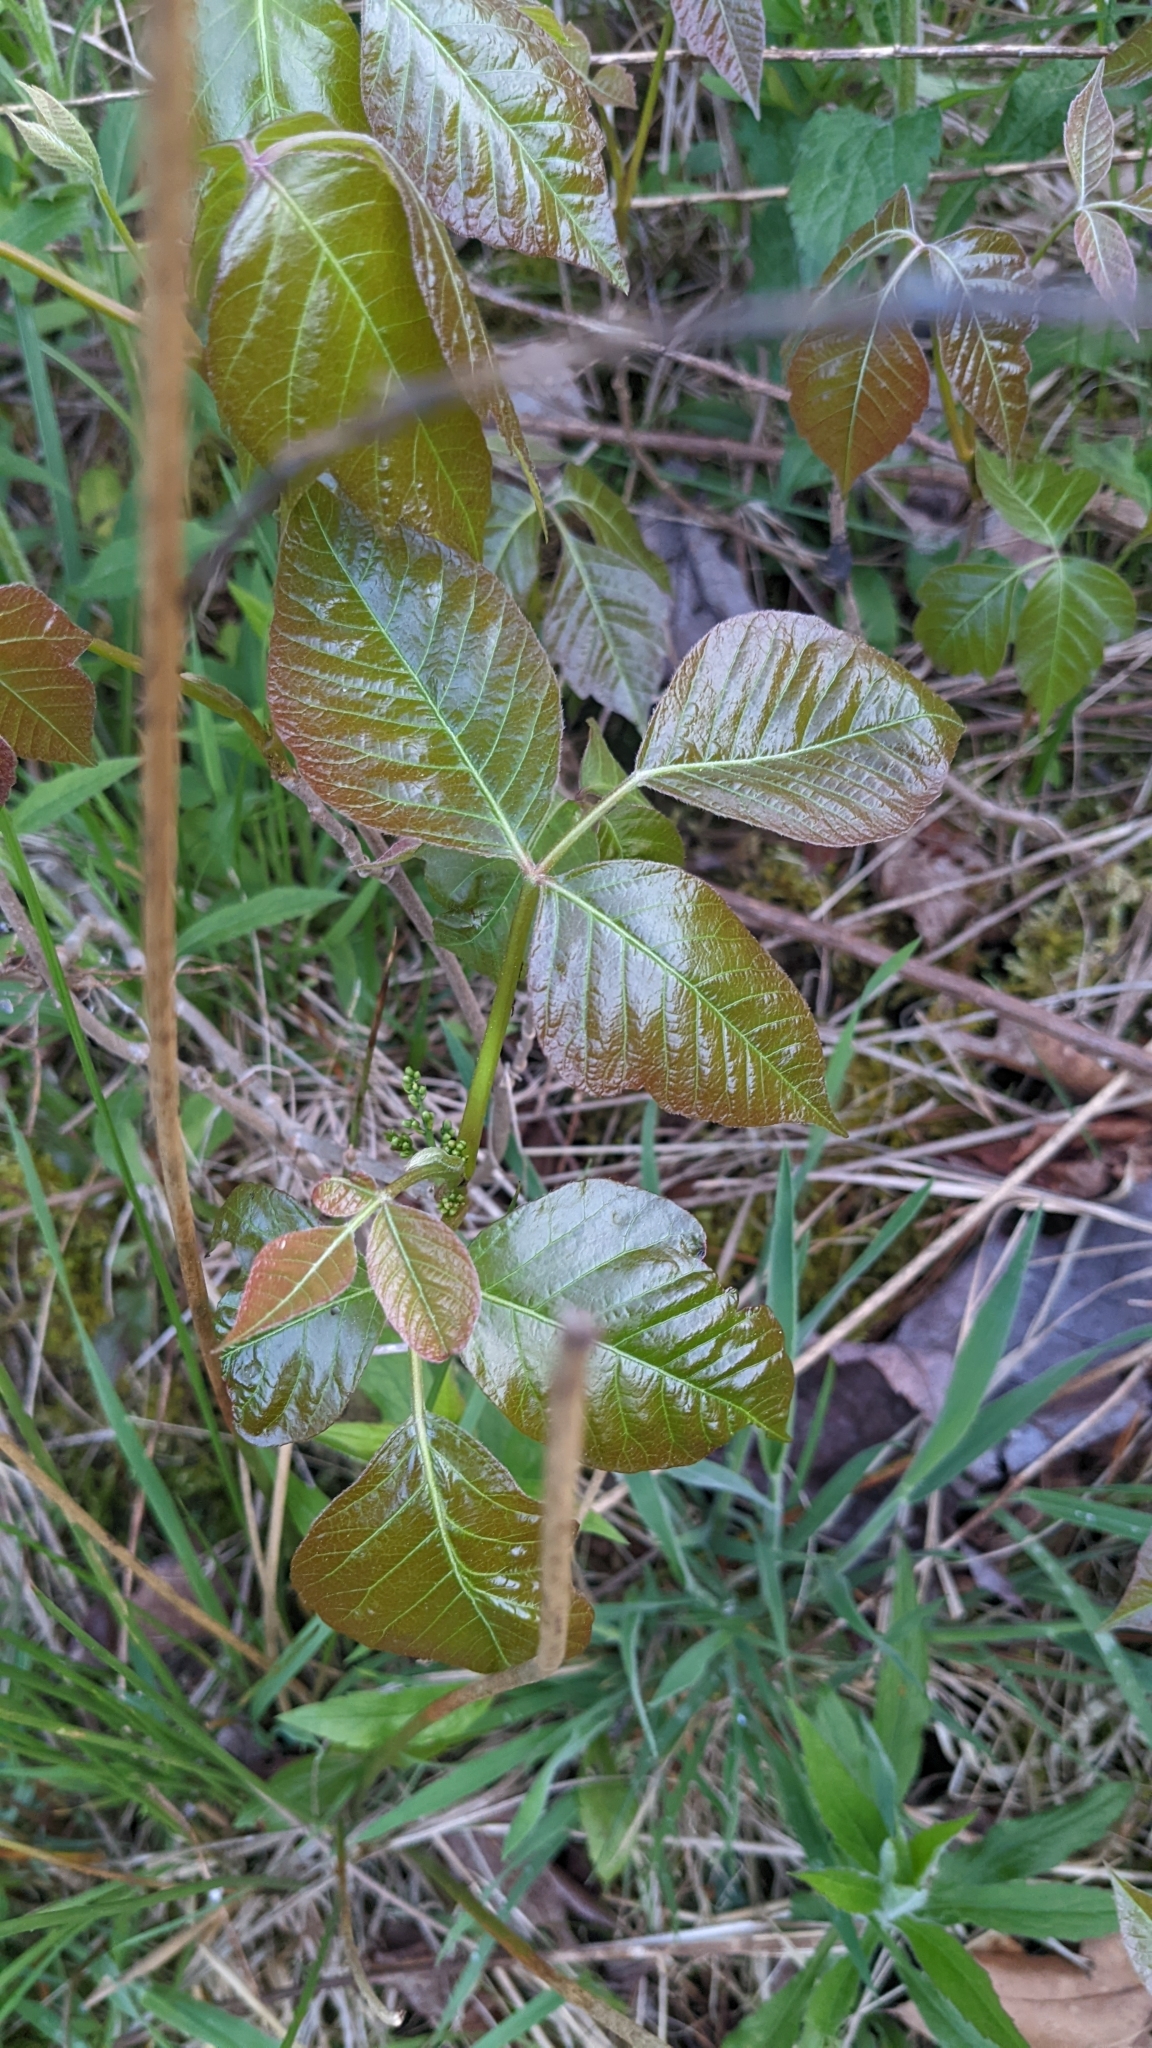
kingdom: Plantae
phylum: Tracheophyta
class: Magnoliopsida
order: Sapindales
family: Anacardiaceae
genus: Toxicodendron
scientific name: Toxicodendron radicans
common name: Poison ivy
